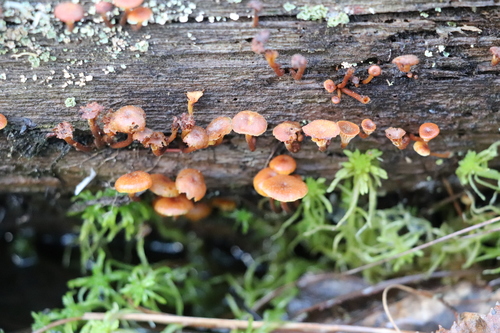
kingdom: Fungi
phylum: Basidiomycota
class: Agaricomycetes
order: Agaricales
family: Mycenaceae
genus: Xeromphalina
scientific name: Xeromphalina campanella
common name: Pinewood gingertail
